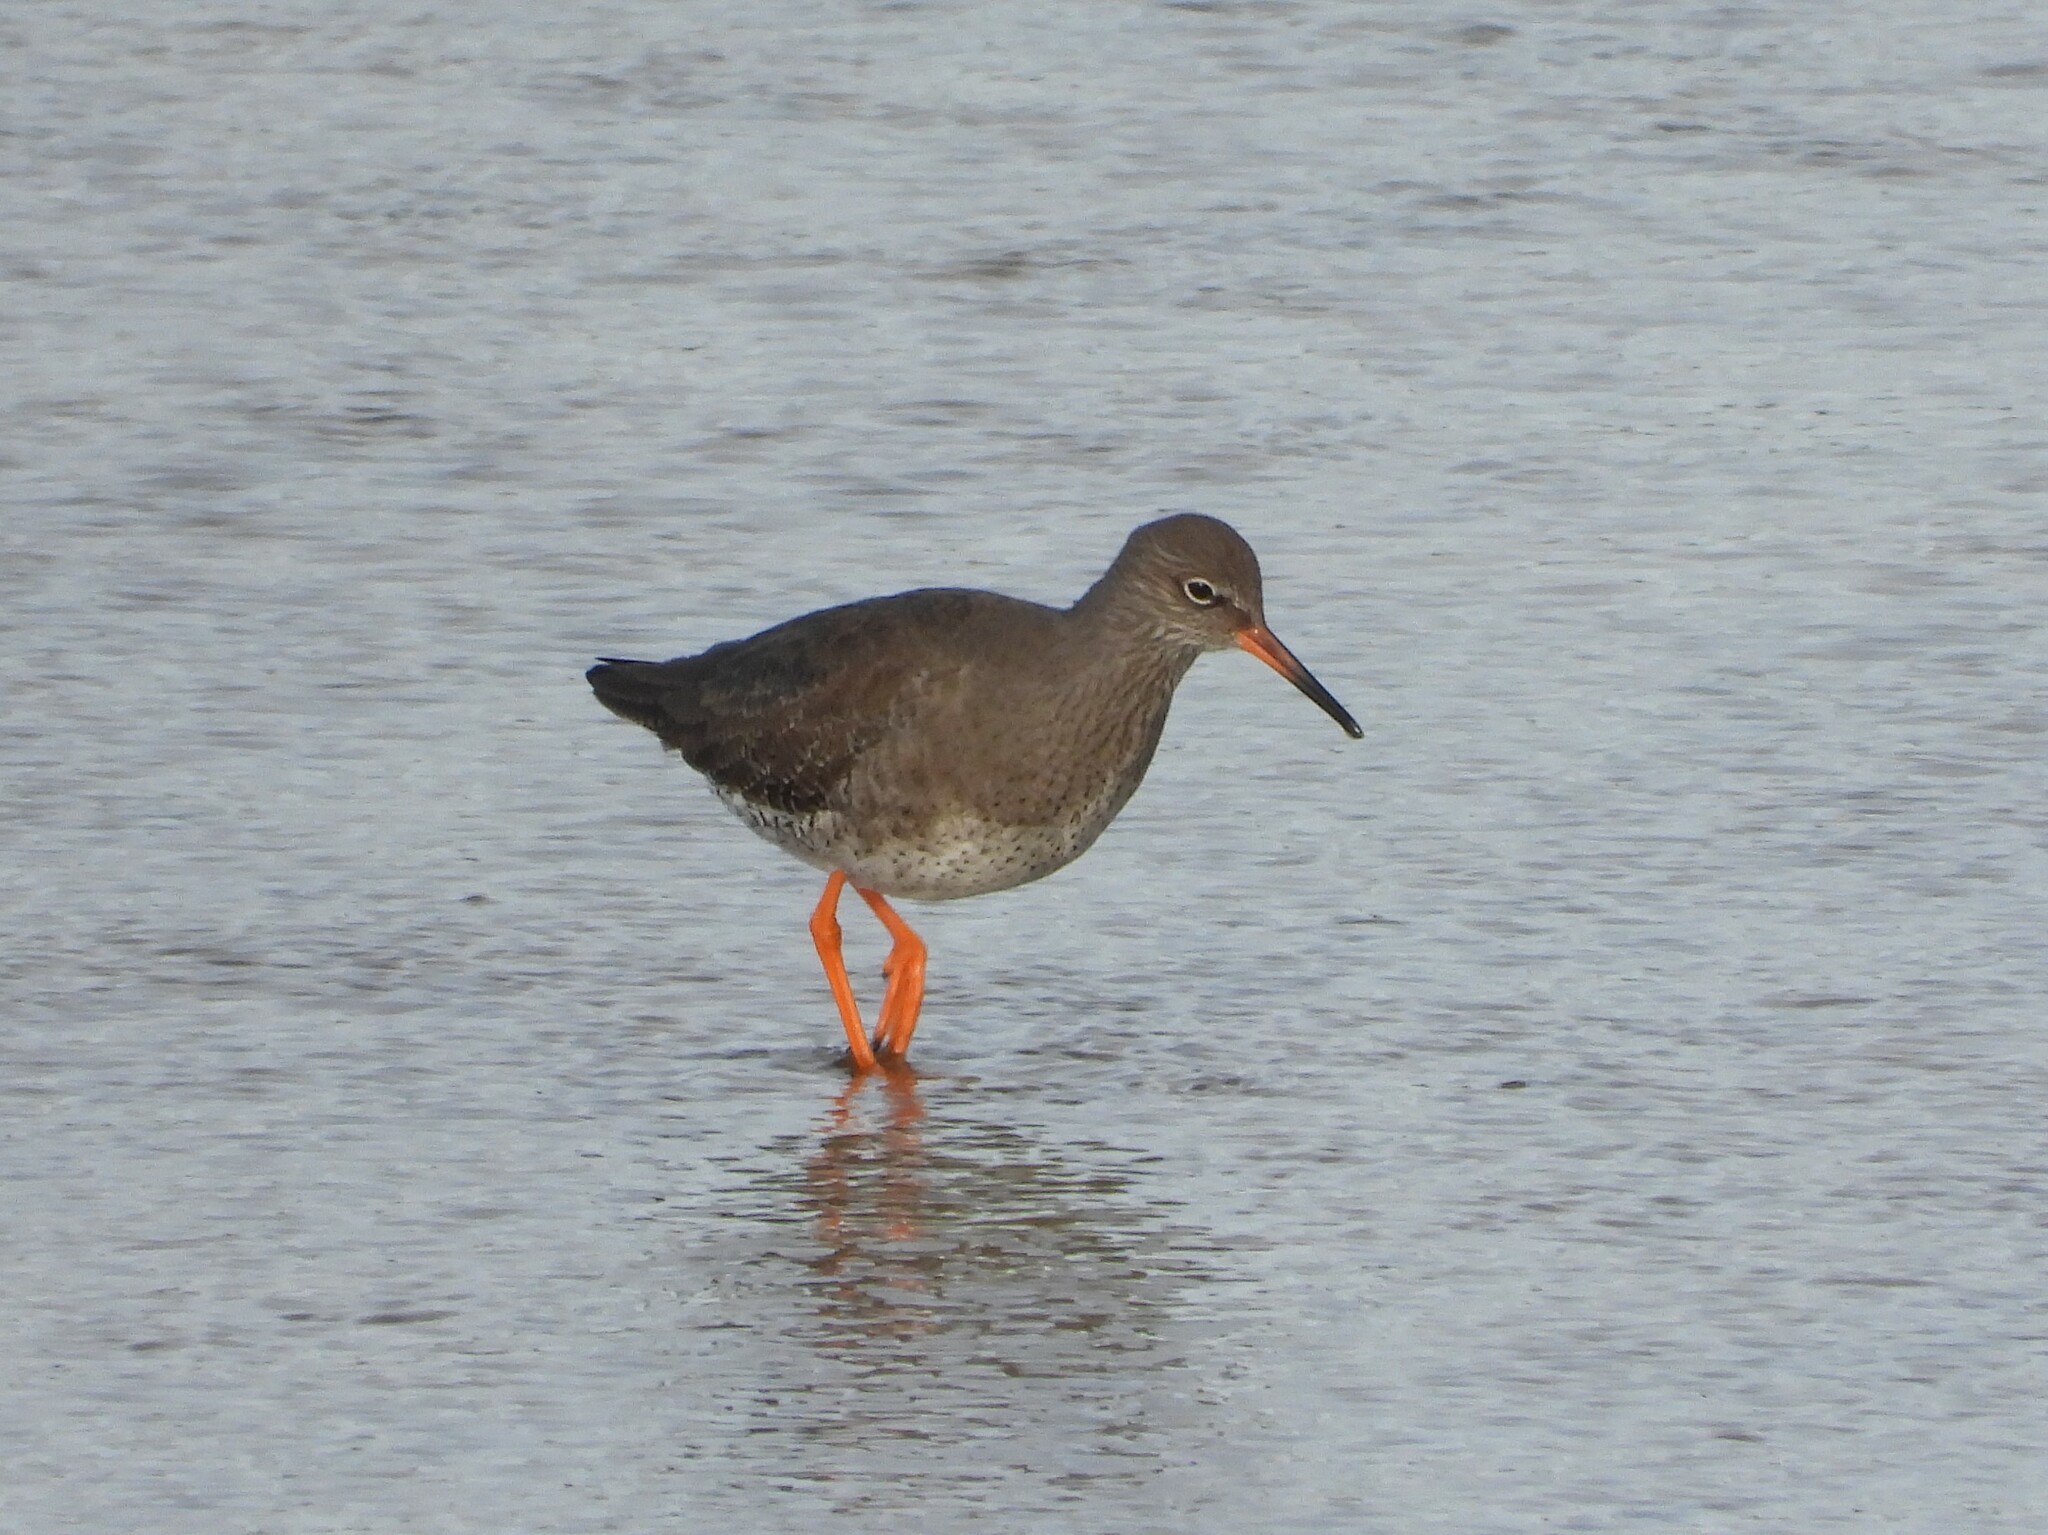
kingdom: Animalia
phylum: Chordata
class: Aves
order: Charadriiformes
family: Scolopacidae
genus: Tringa
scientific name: Tringa totanus
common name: Common redshank
